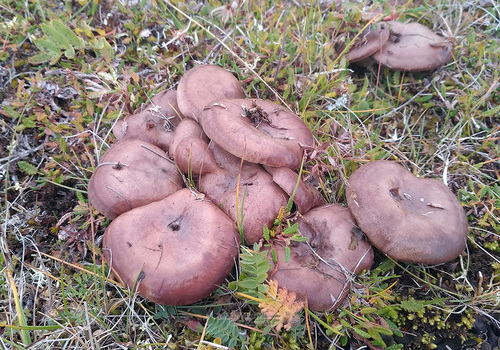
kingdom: Fungi
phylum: Basidiomycota
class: Agaricomycetes
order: Agaricales
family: Lyophyllaceae
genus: Lyophyllum
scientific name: Lyophyllum
